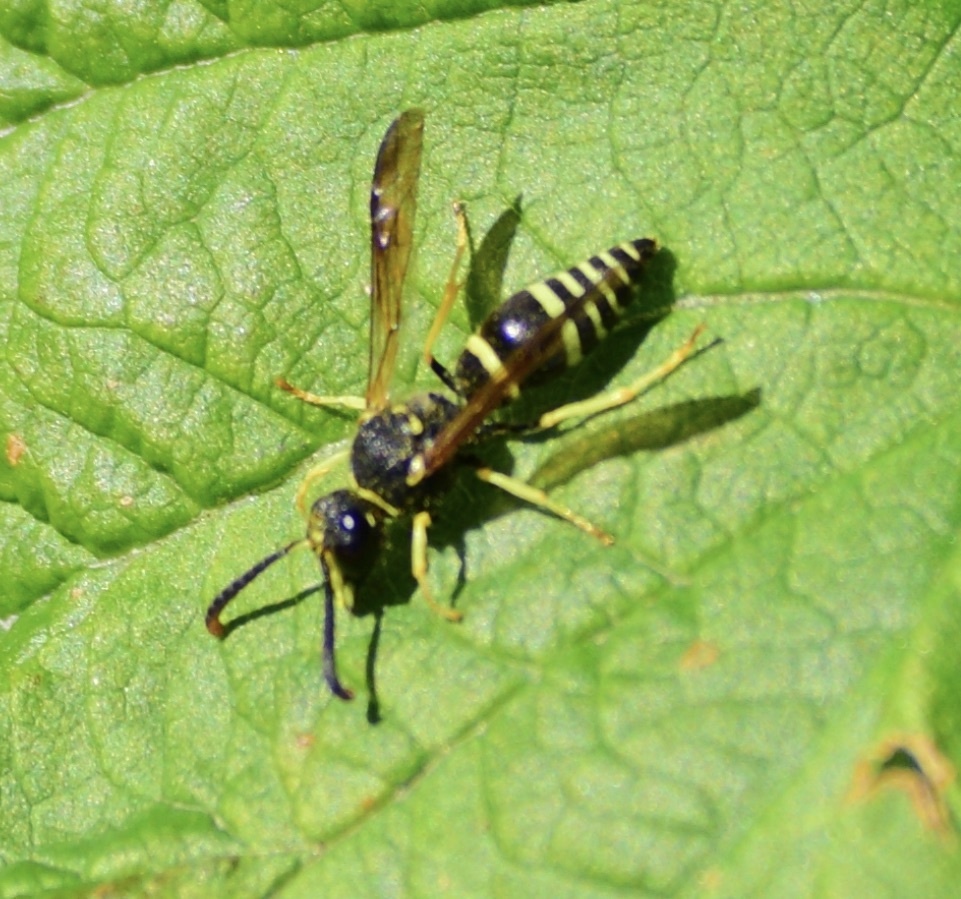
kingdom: Animalia
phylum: Arthropoda
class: Insecta
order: Hymenoptera
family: Vespidae
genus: Ancistrocerus
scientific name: Ancistrocerus
